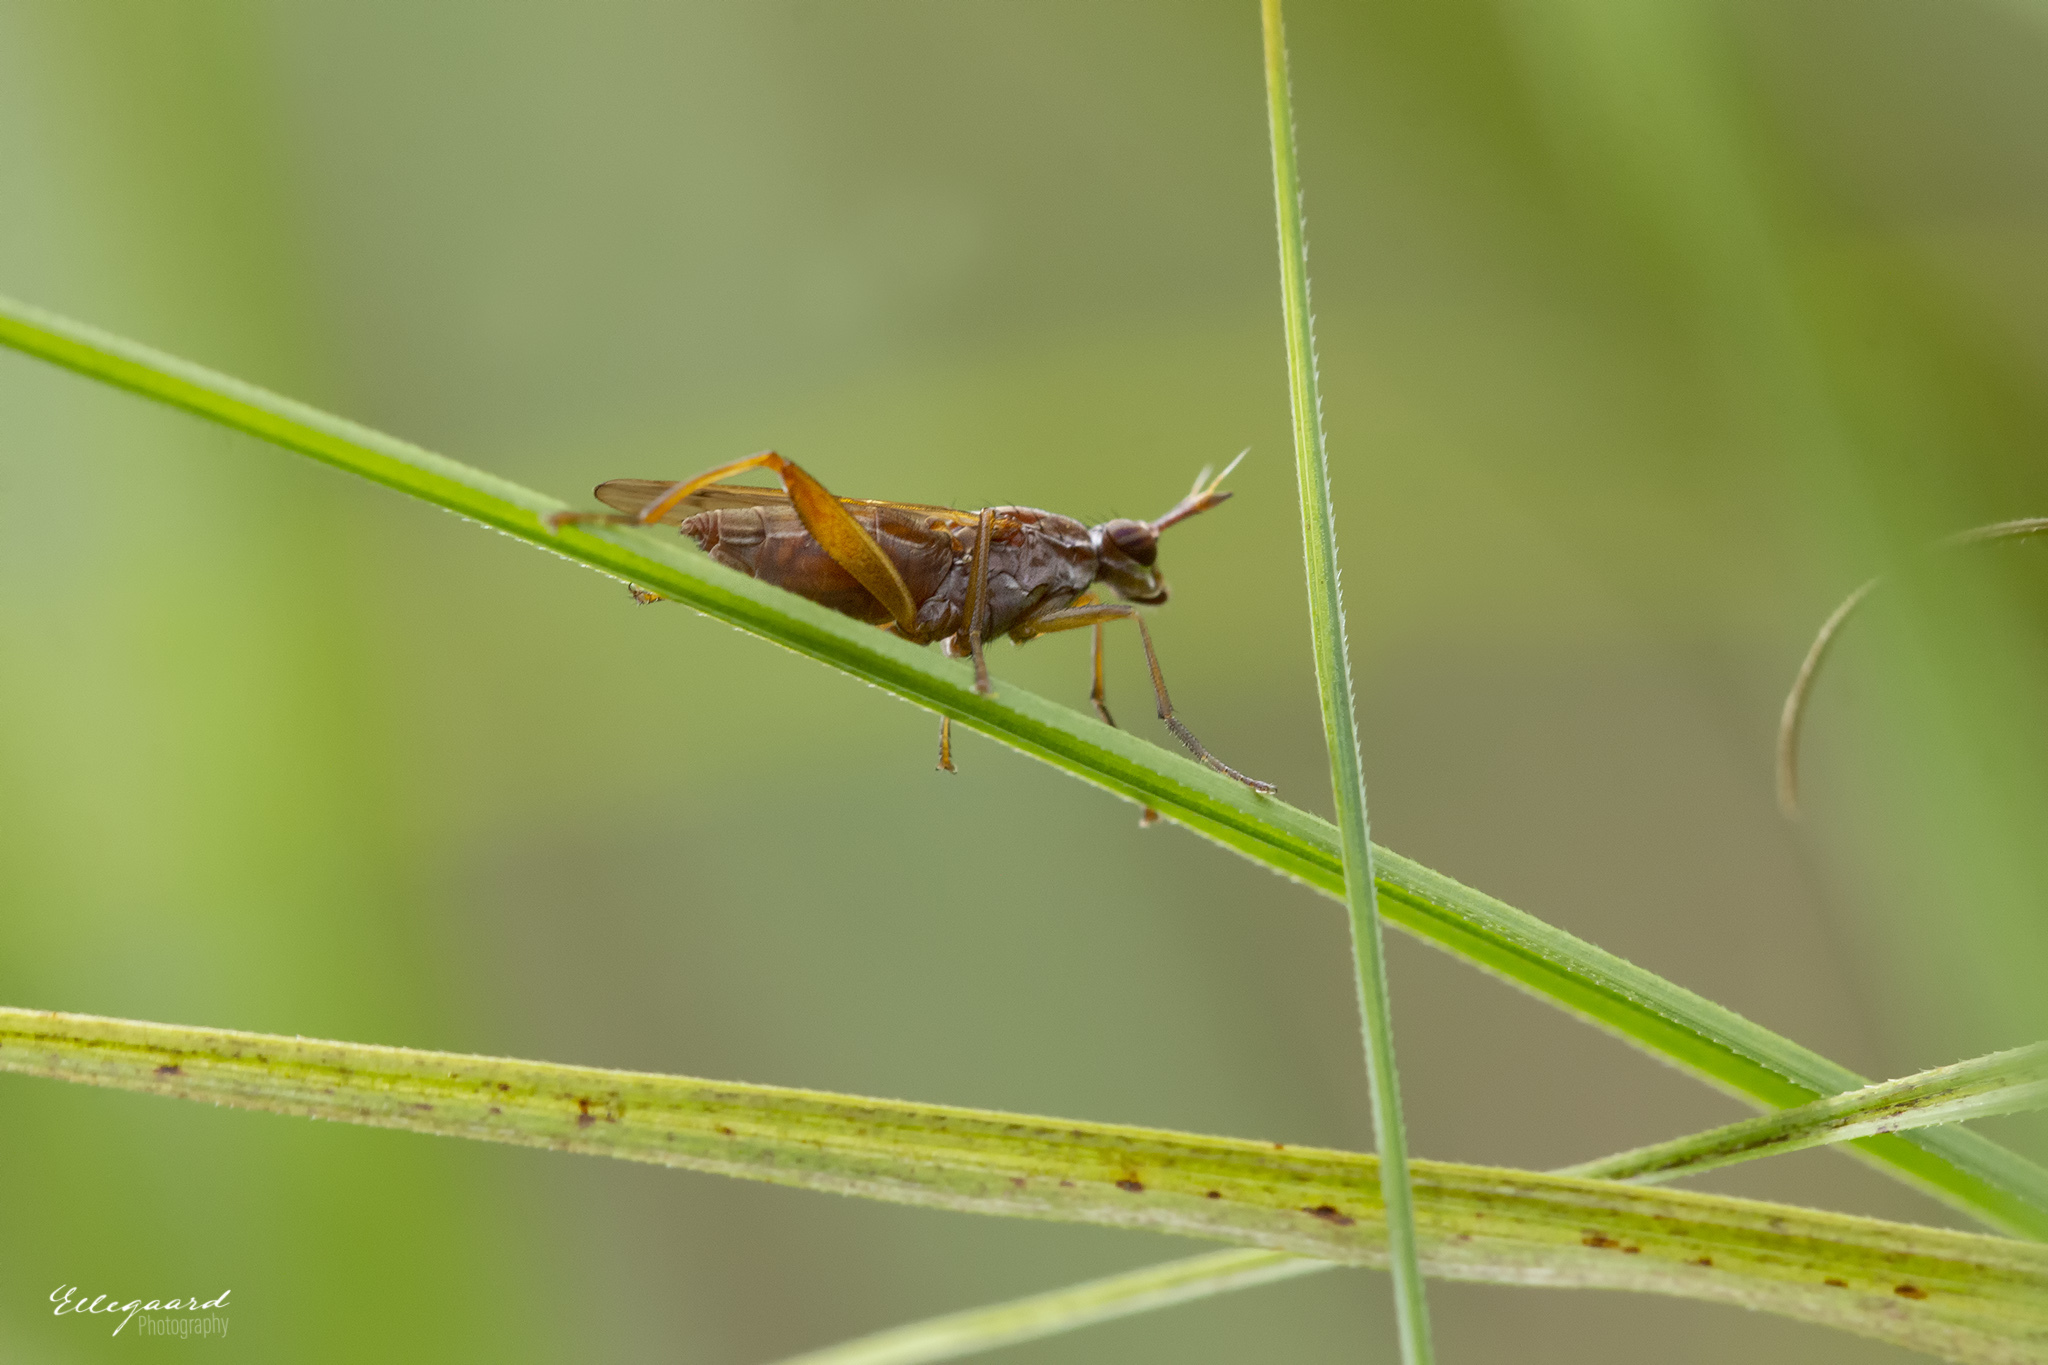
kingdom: Animalia
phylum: Arthropoda
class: Insecta
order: Diptera
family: Sciomyzidae
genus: Sepedon
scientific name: Sepedon spinipes
